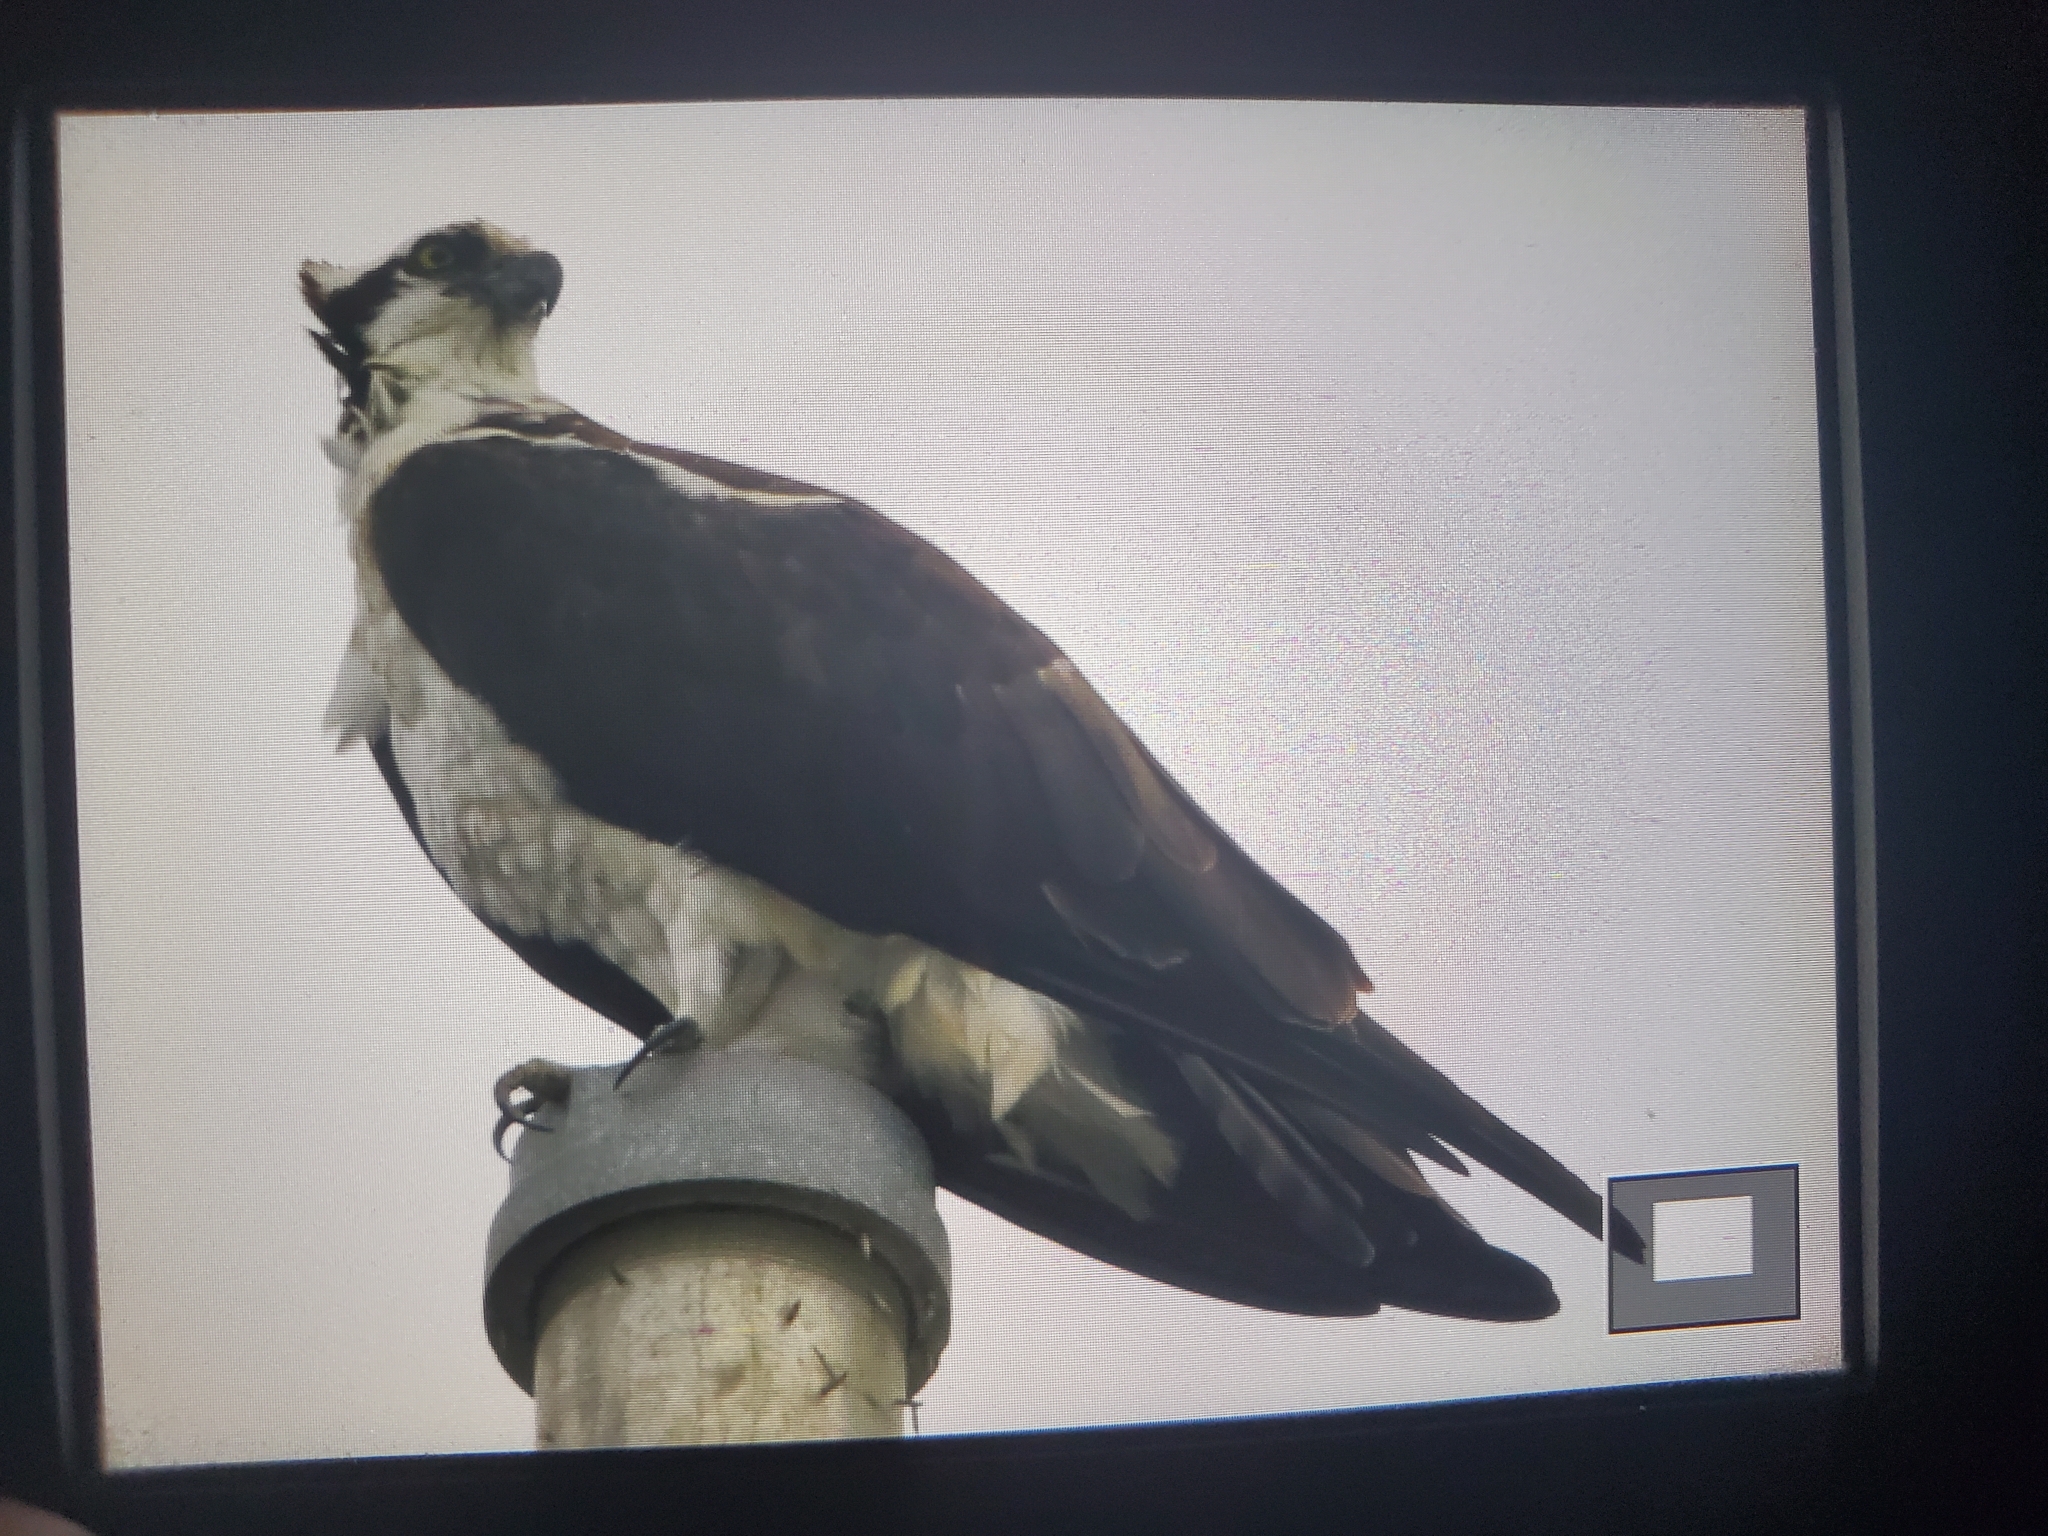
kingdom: Animalia
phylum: Chordata
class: Aves
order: Accipitriformes
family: Pandionidae
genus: Pandion
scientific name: Pandion haliaetus
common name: Osprey
